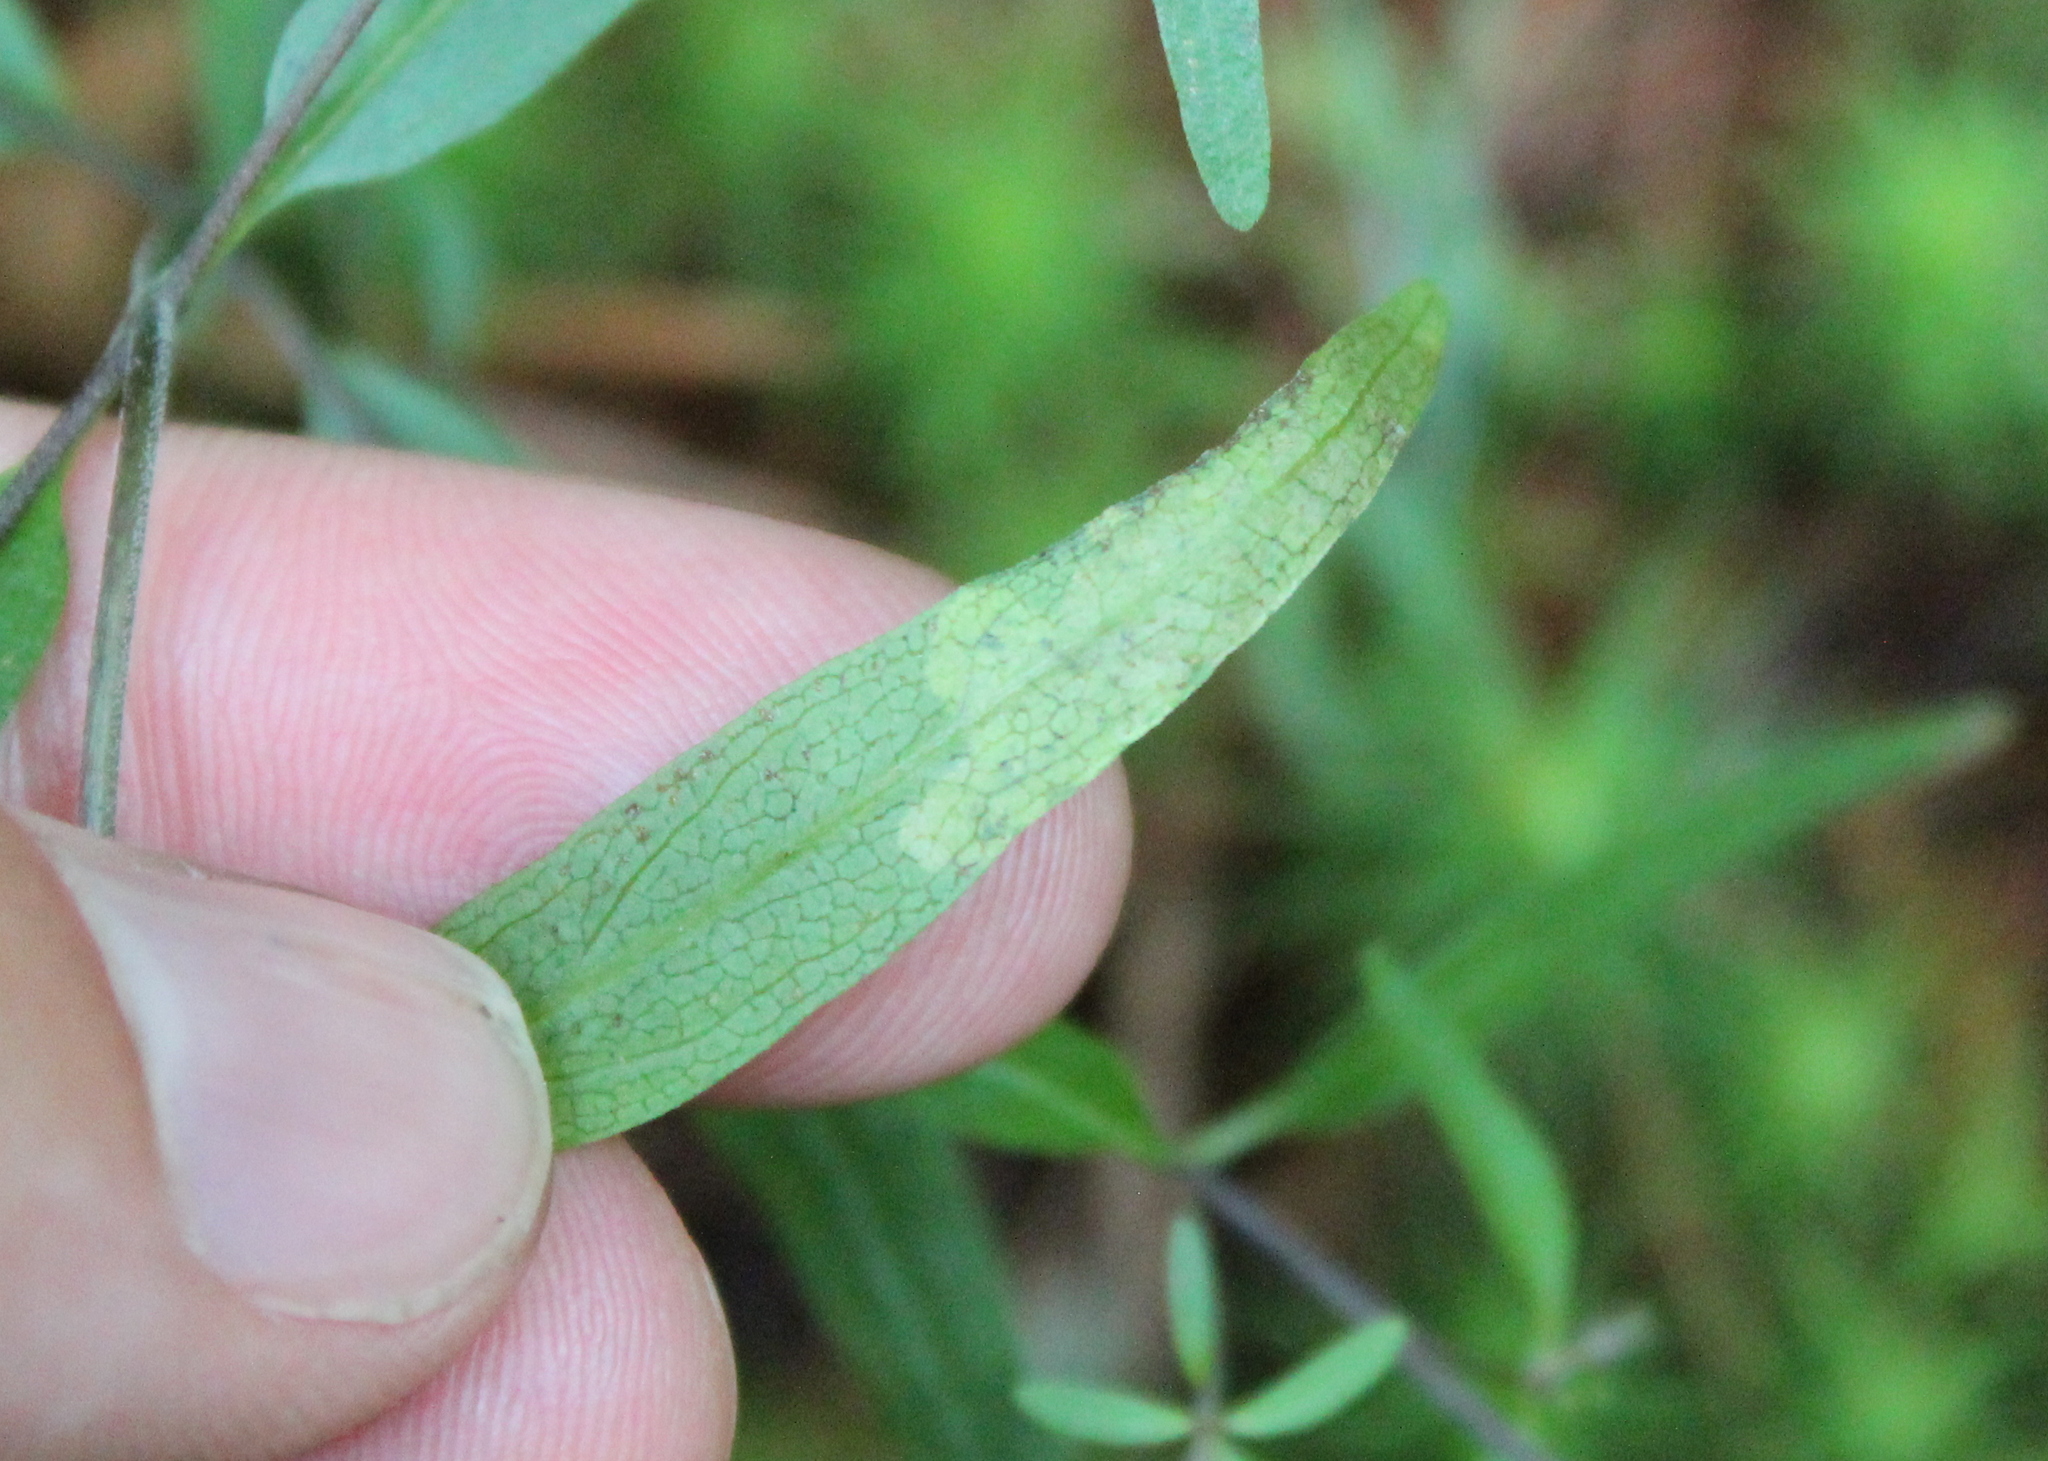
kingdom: Animalia
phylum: Arthropoda
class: Insecta
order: Diptera
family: Agromyzidae
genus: Liriomyza
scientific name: Liriomyza pistilla
